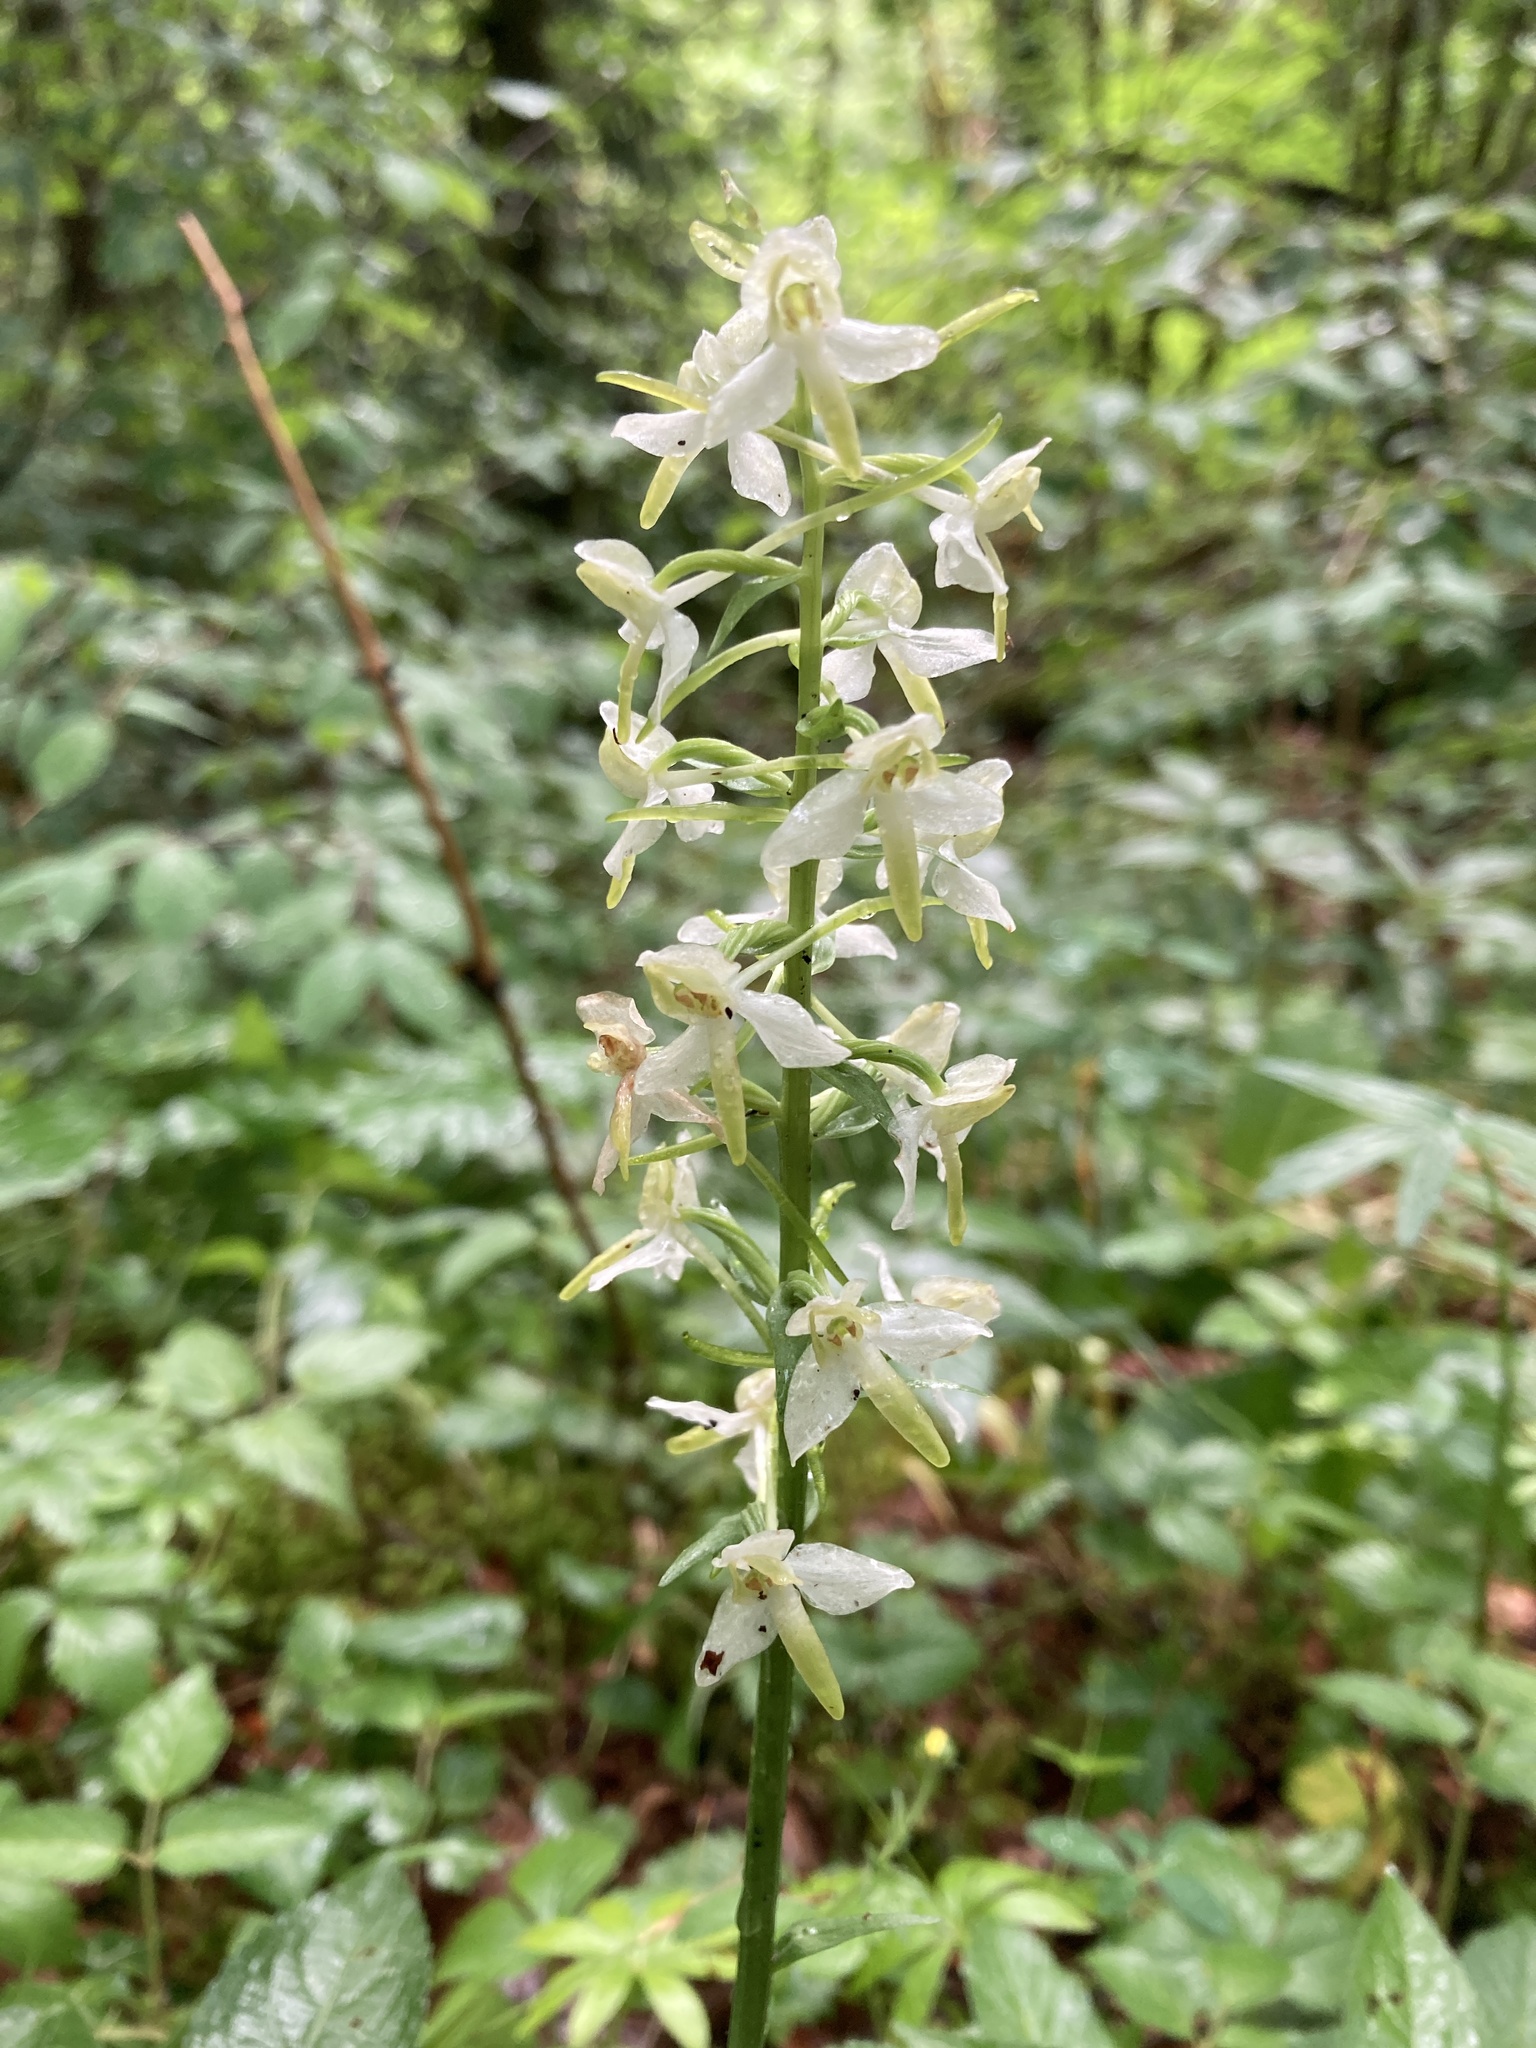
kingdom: Plantae
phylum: Tracheophyta
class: Liliopsida
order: Asparagales
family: Orchidaceae
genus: Platanthera
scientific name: Platanthera chlorantha
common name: Greater butterfly-orchid
